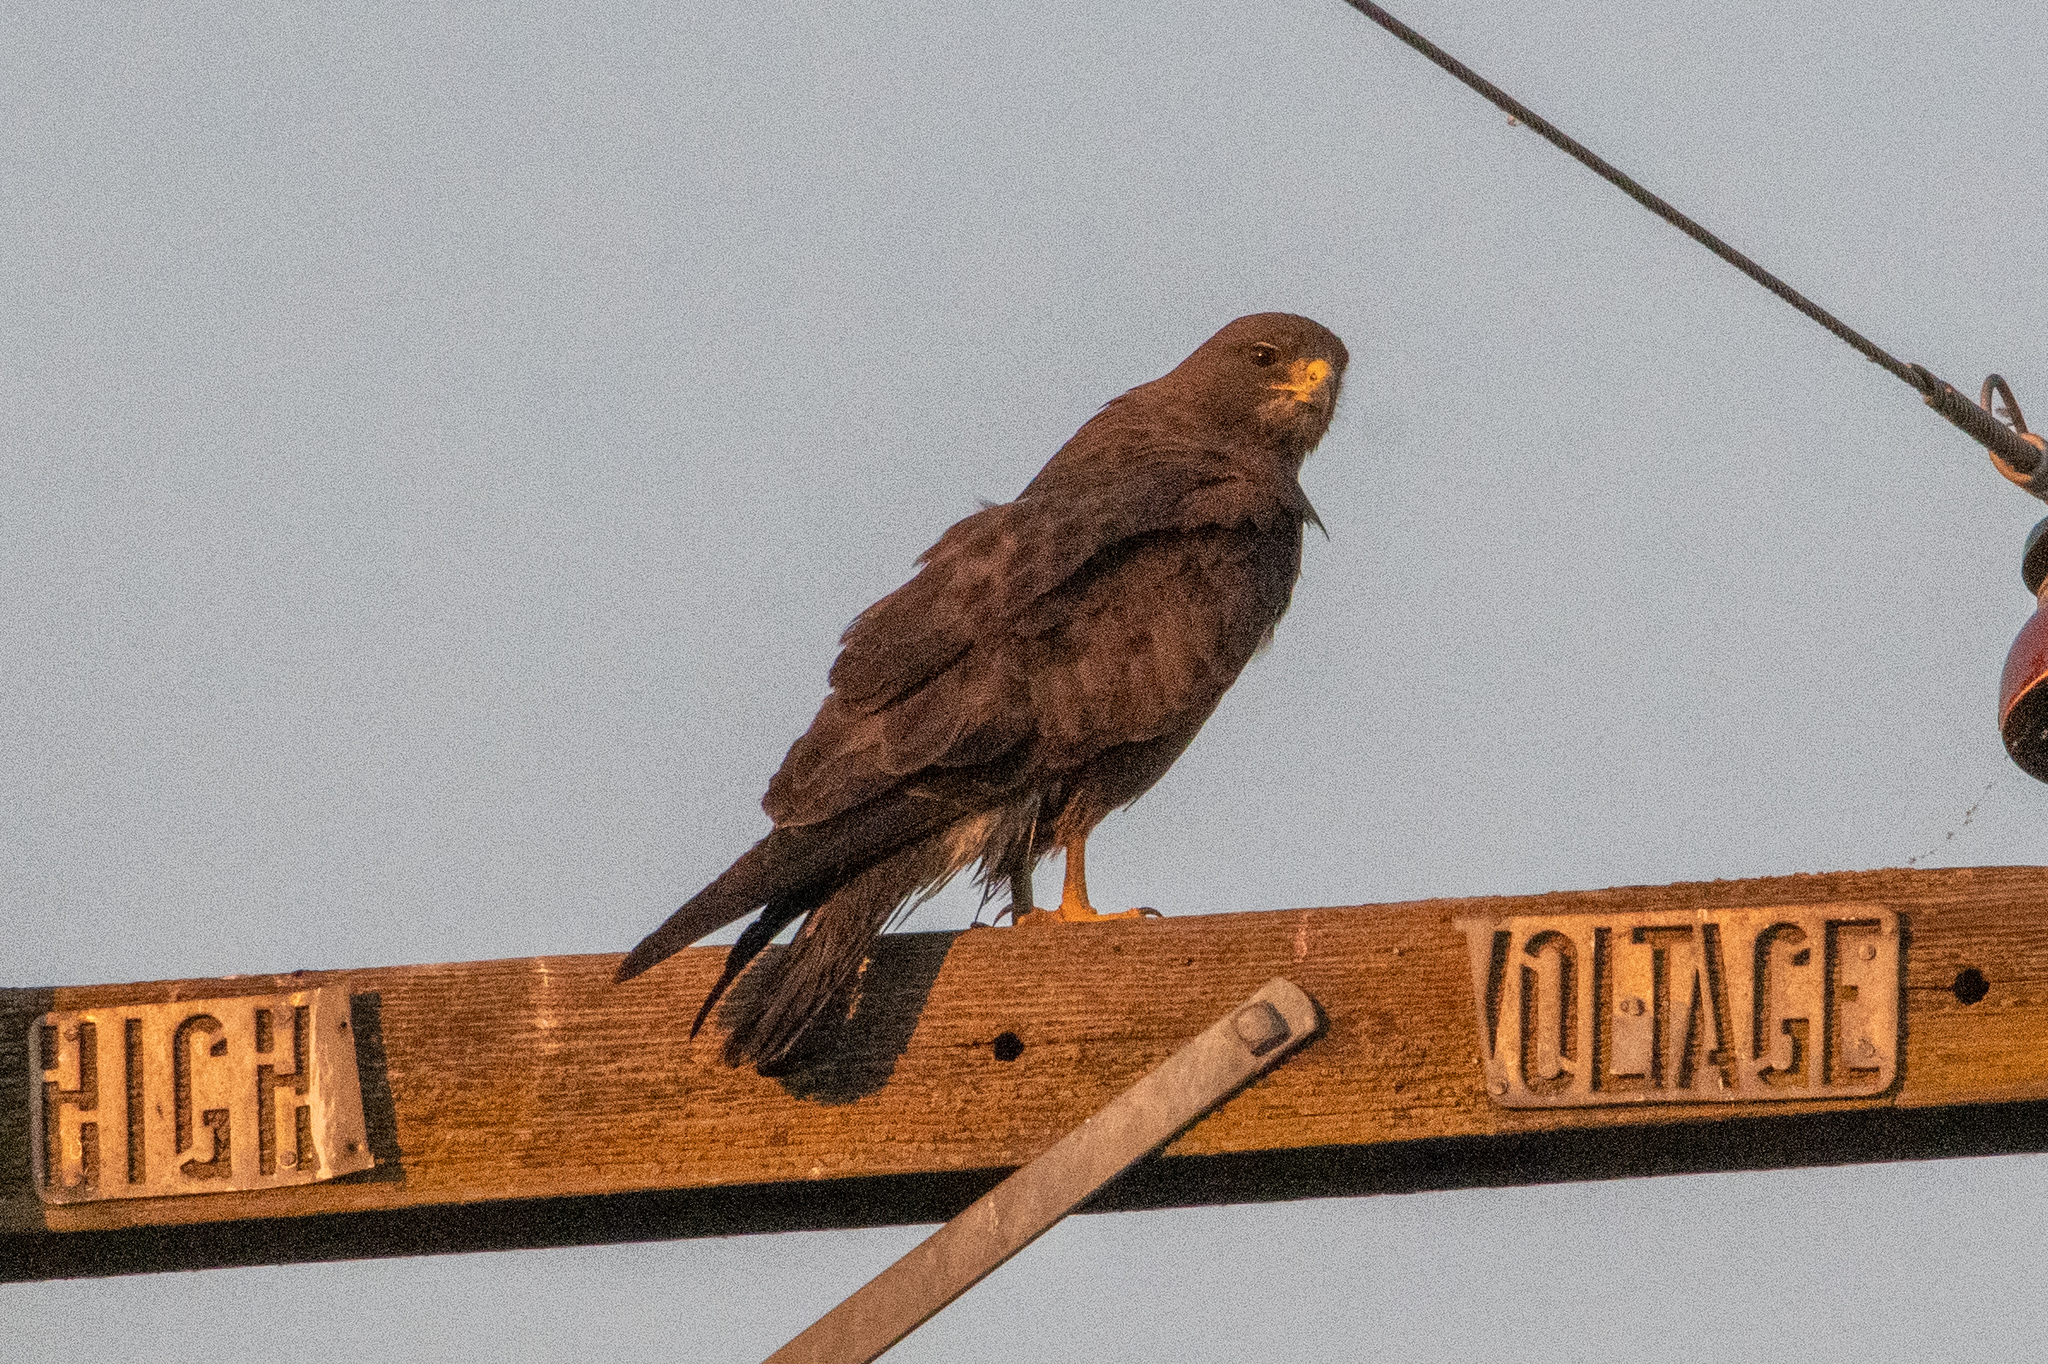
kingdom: Animalia
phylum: Chordata
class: Aves
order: Accipitriformes
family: Accipitridae
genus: Buteo
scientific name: Buteo swainsoni
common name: Swainson's hawk
